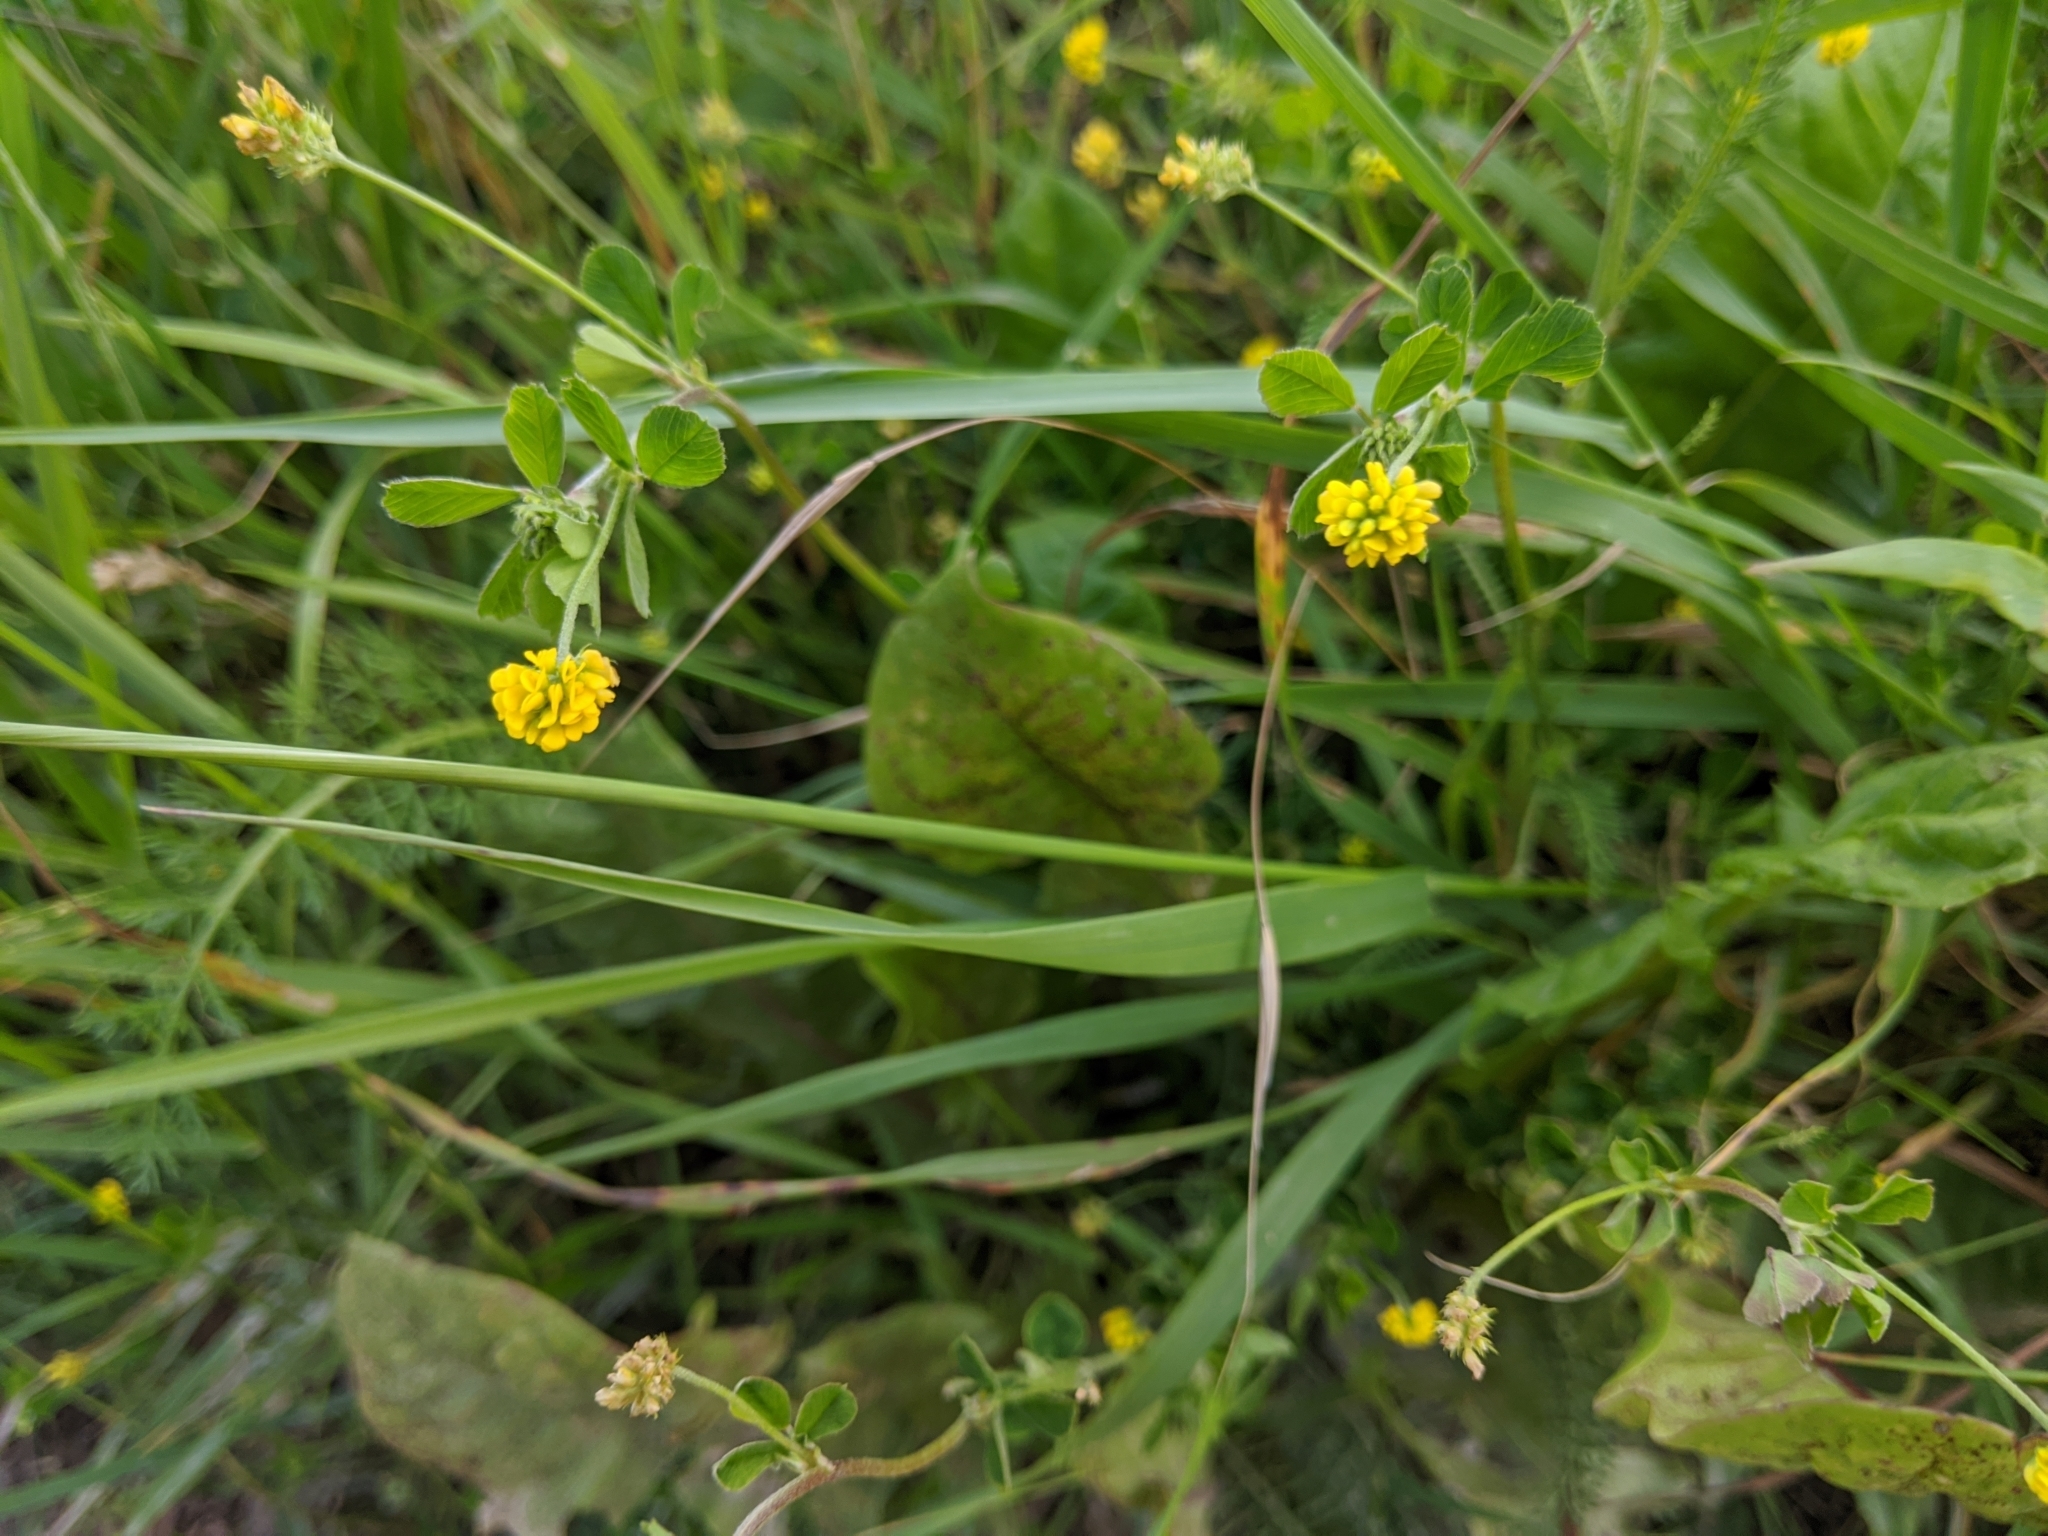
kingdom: Plantae
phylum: Tracheophyta
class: Magnoliopsida
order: Fabales
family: Fabaceae
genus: Medicago
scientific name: Medicago lupulina
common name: Black medick
